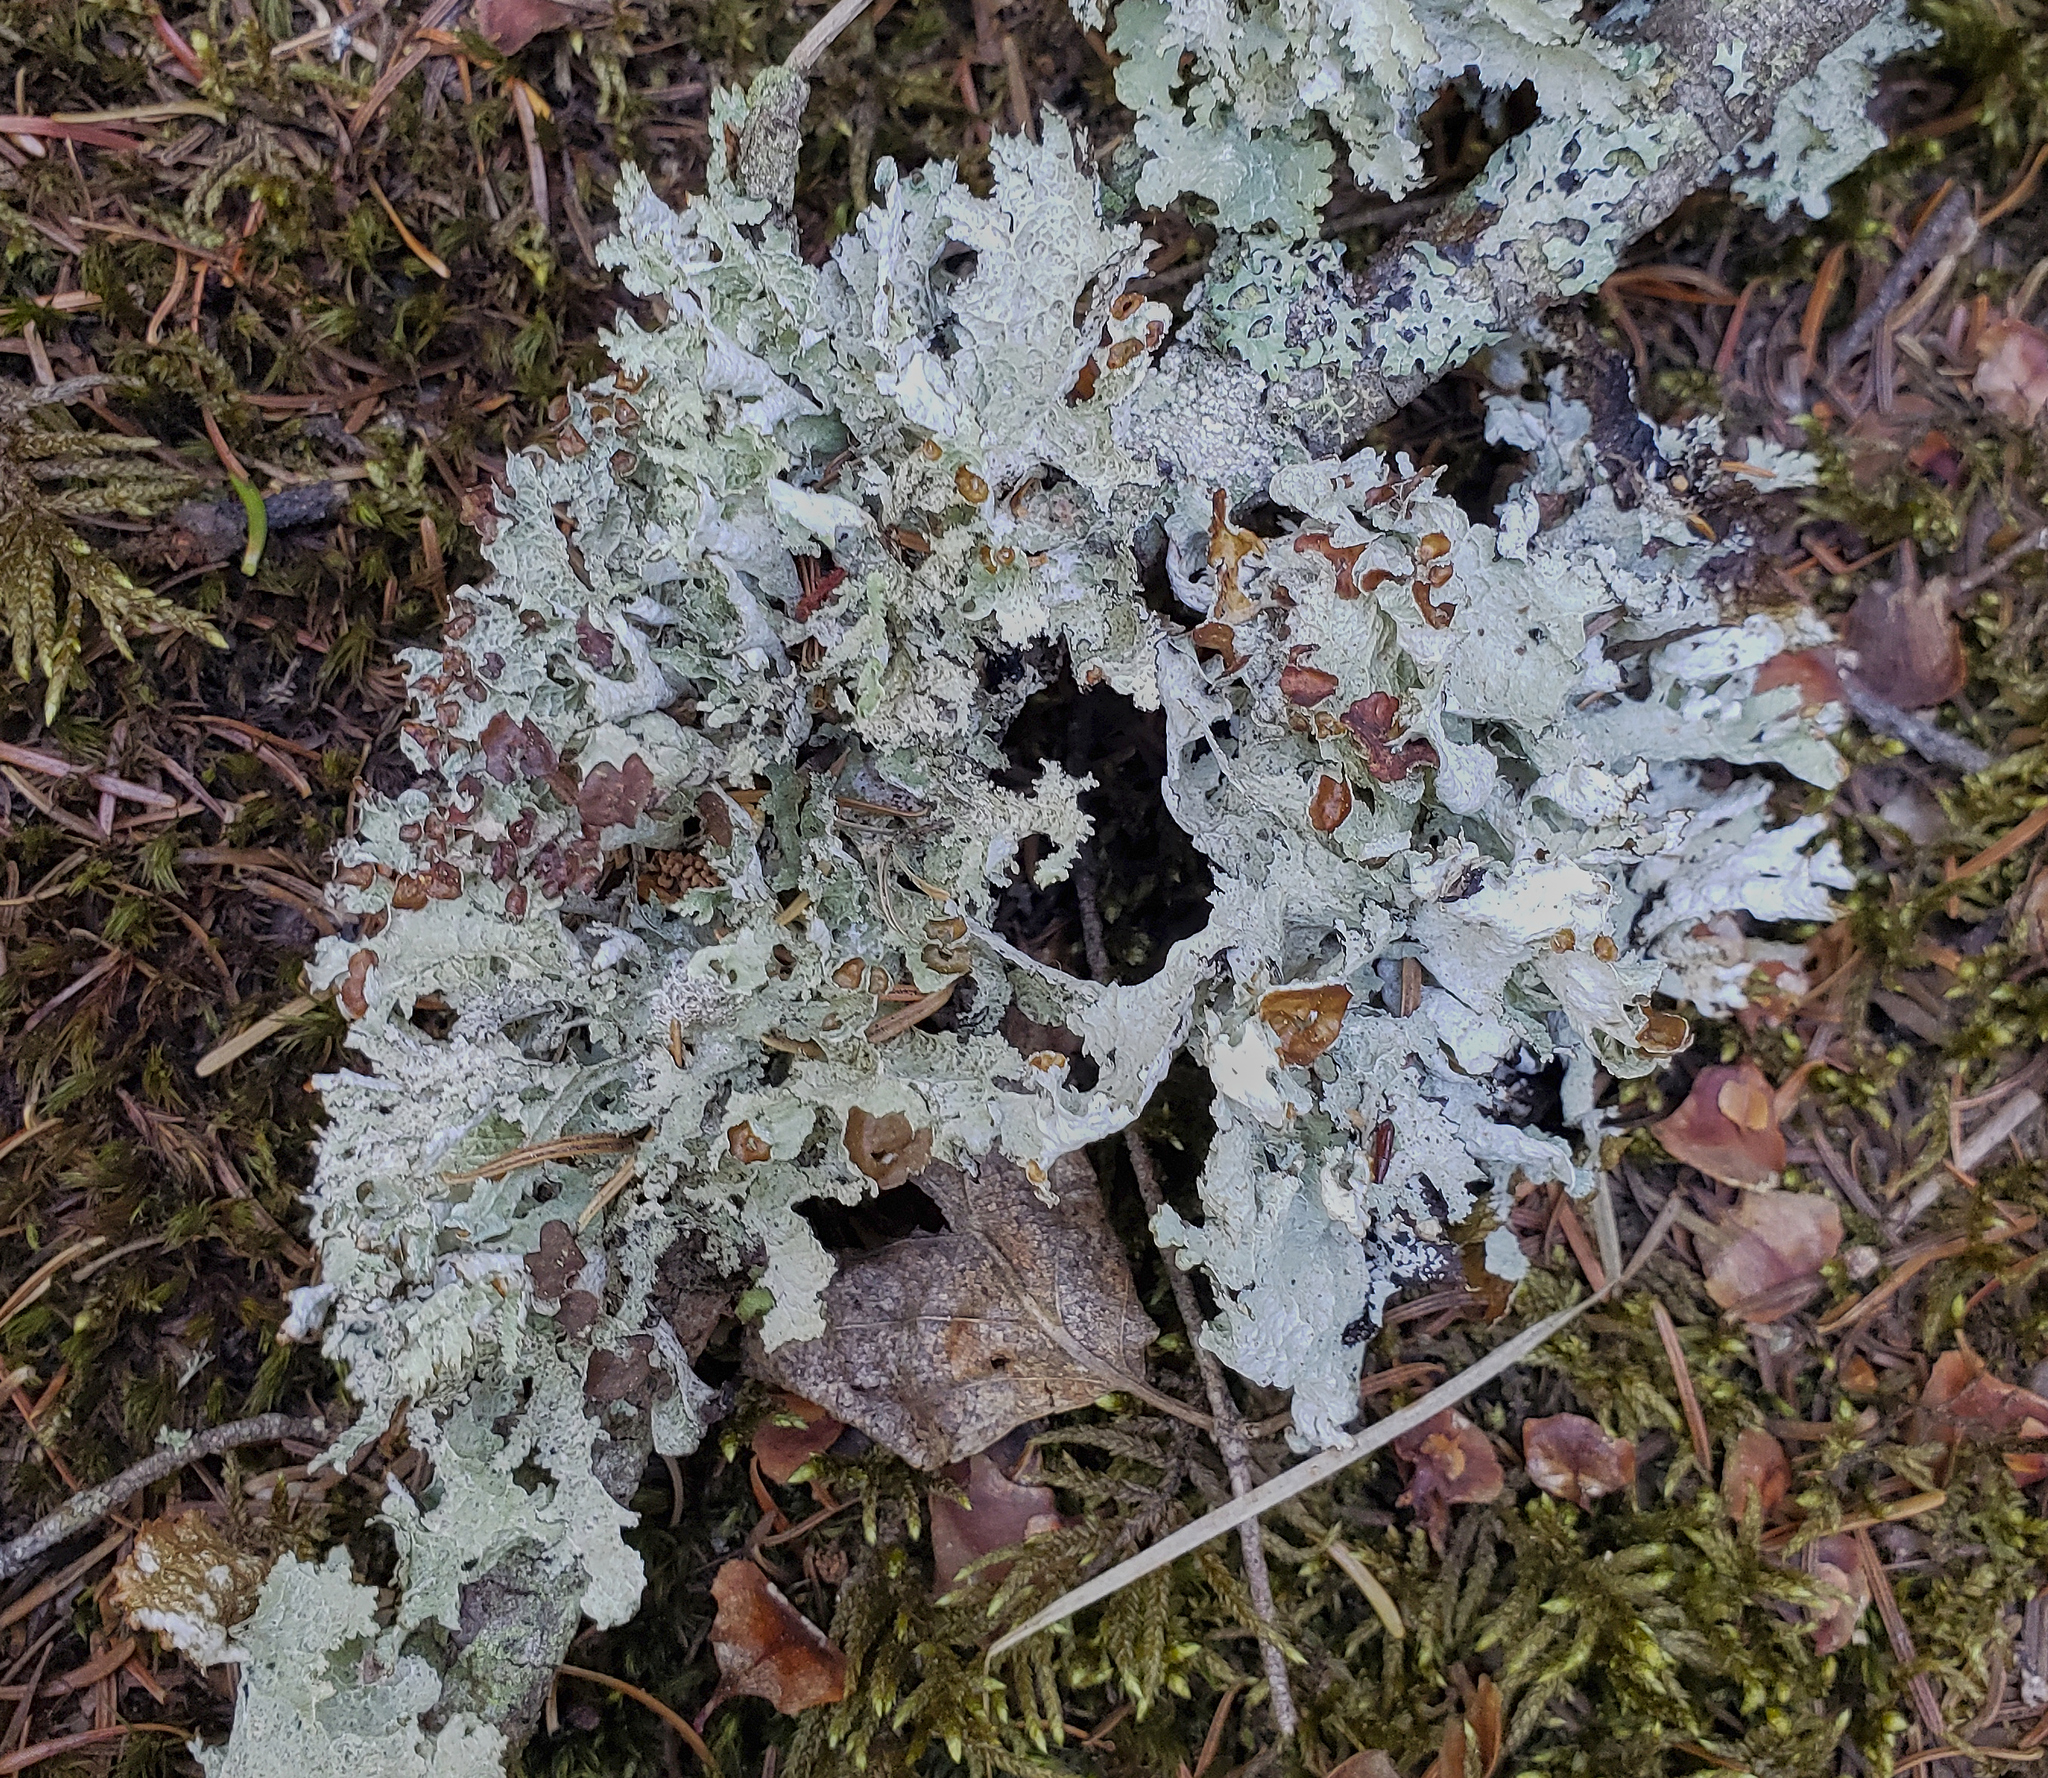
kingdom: Fungi
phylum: Ascomycota
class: Lecanoromycetes
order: Lecanorales
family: Parmeliaceae
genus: Platismatia
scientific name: Platismatia tuckermanii
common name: Crumpled rag lichen
